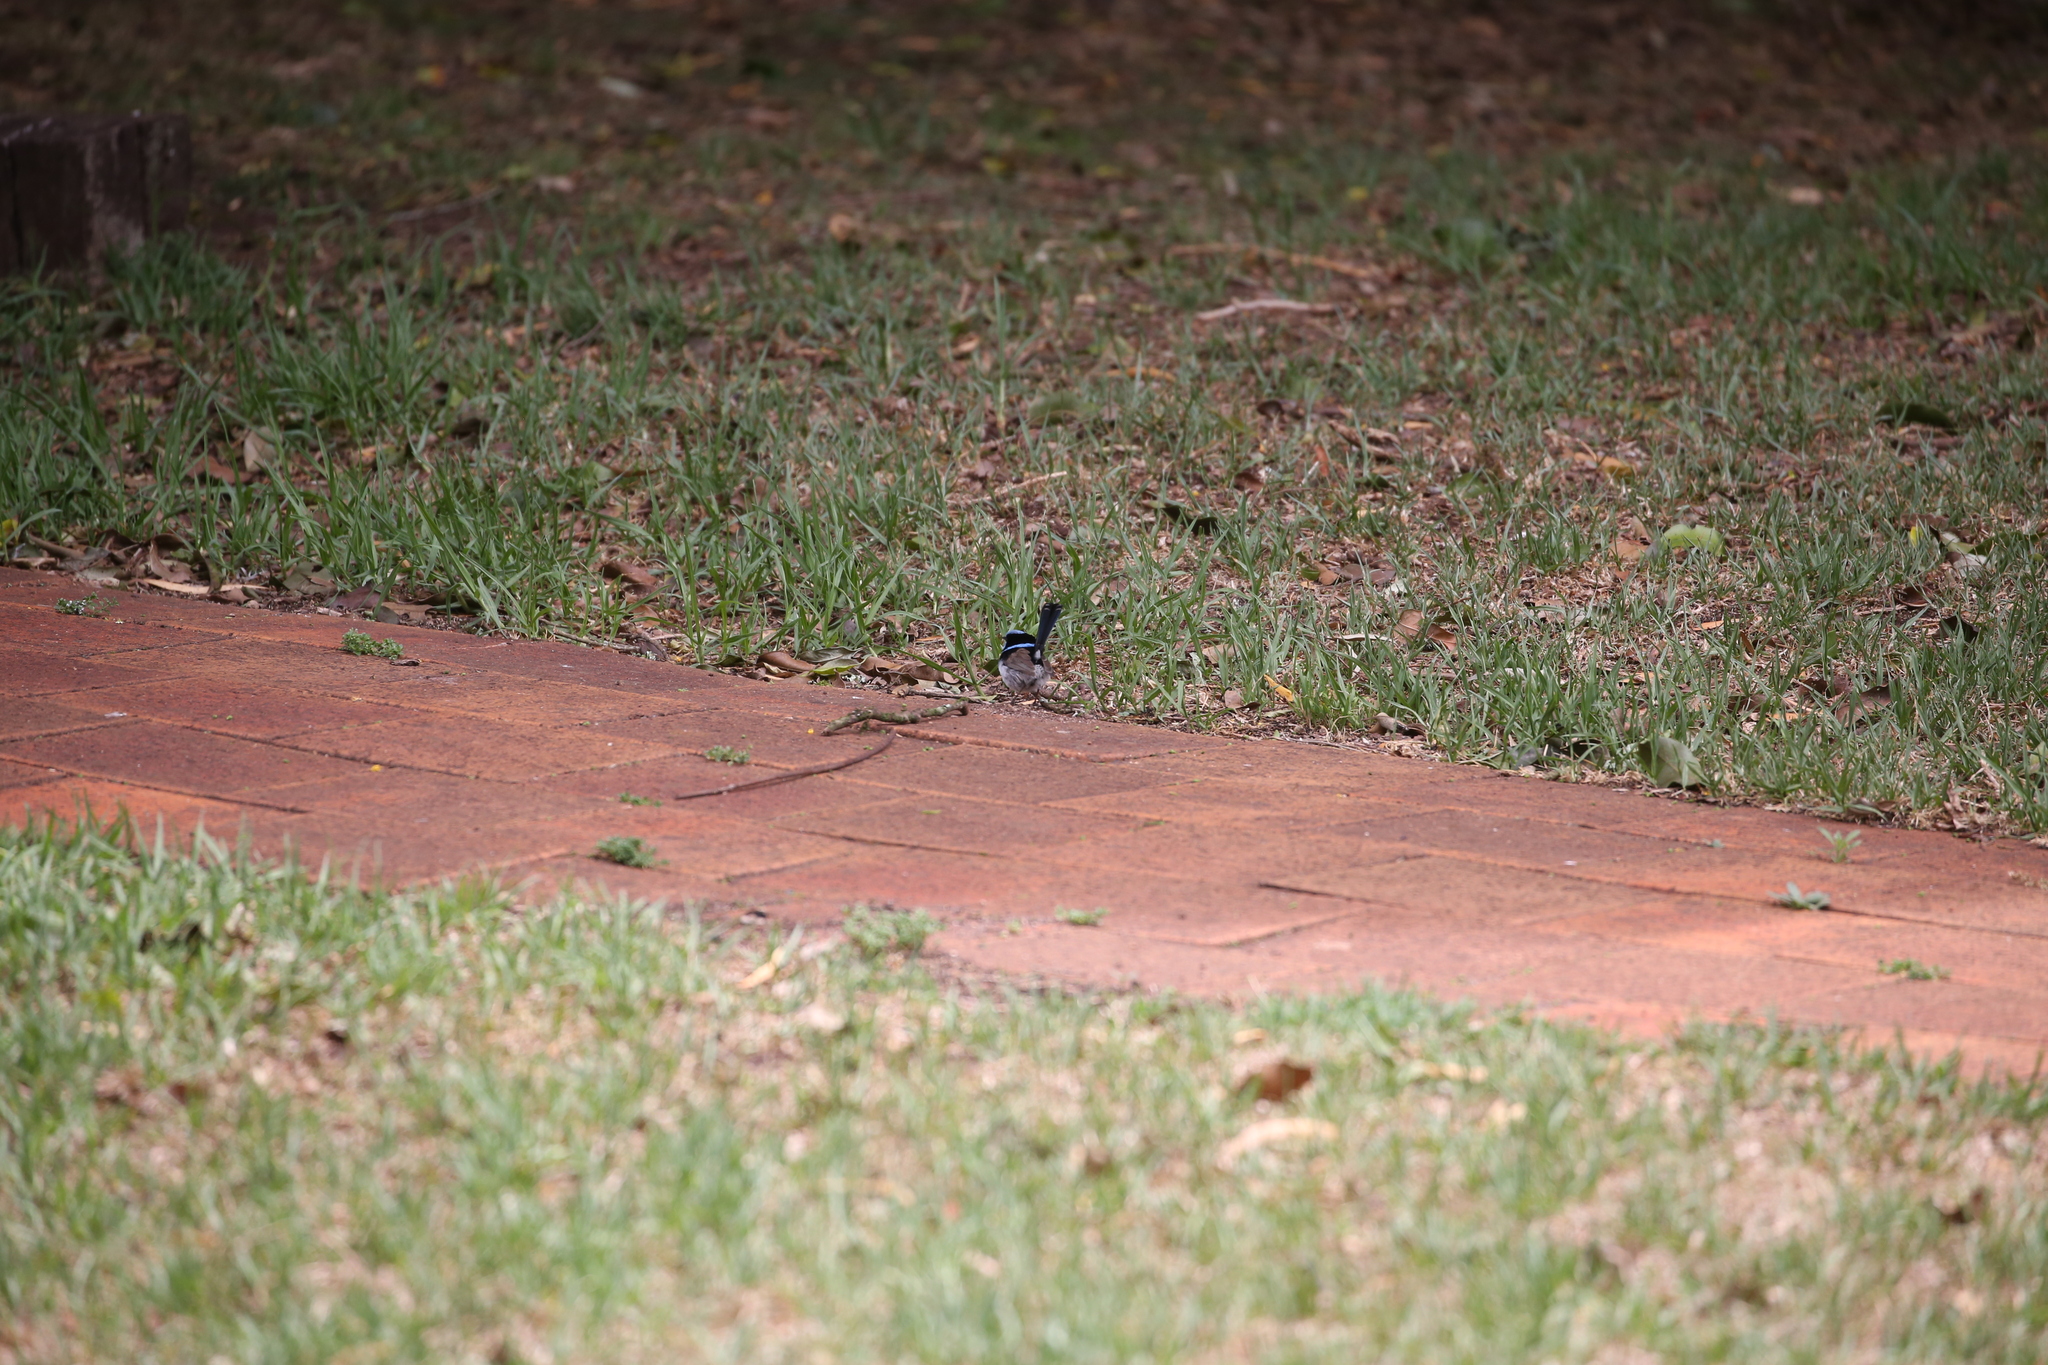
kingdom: Animalia
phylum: Chordata
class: Aves
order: Passeriformes
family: Cracticidae
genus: Strepera
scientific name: Strepera graculina
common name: Pied currawong
